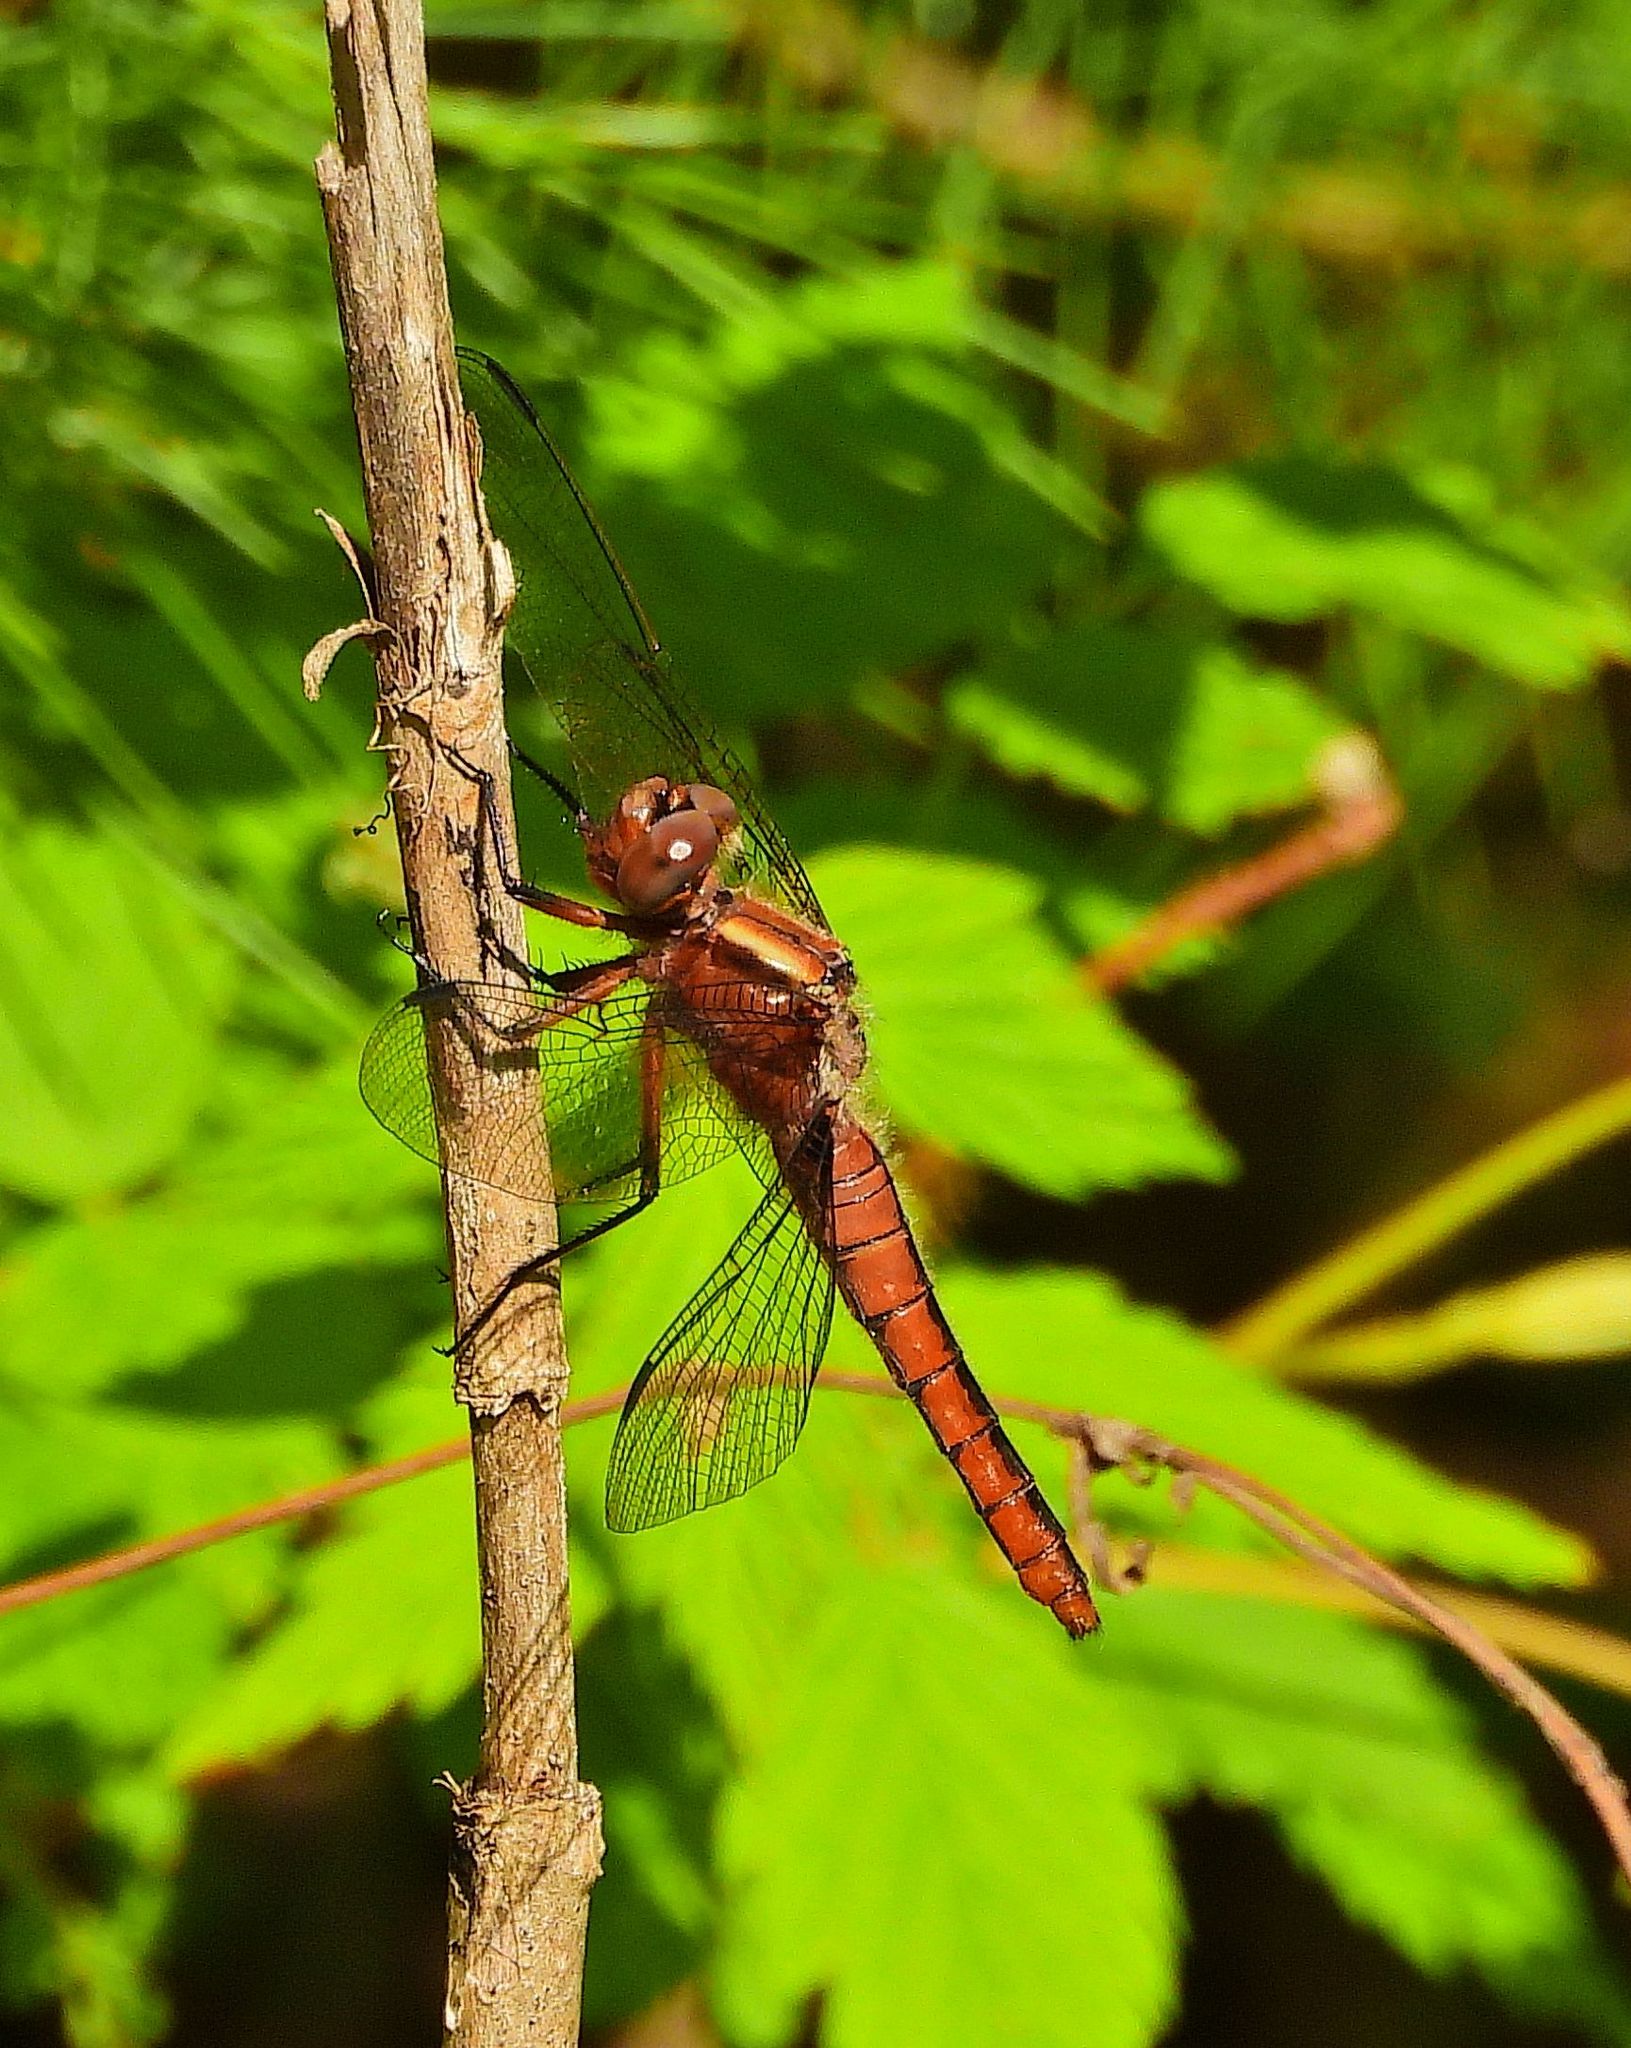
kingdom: Animalia
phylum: Arthropoda
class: Insecta
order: Odonata
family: Libellulidae
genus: Ladona
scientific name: Ladona julia
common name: Chalk-fronted corporal
